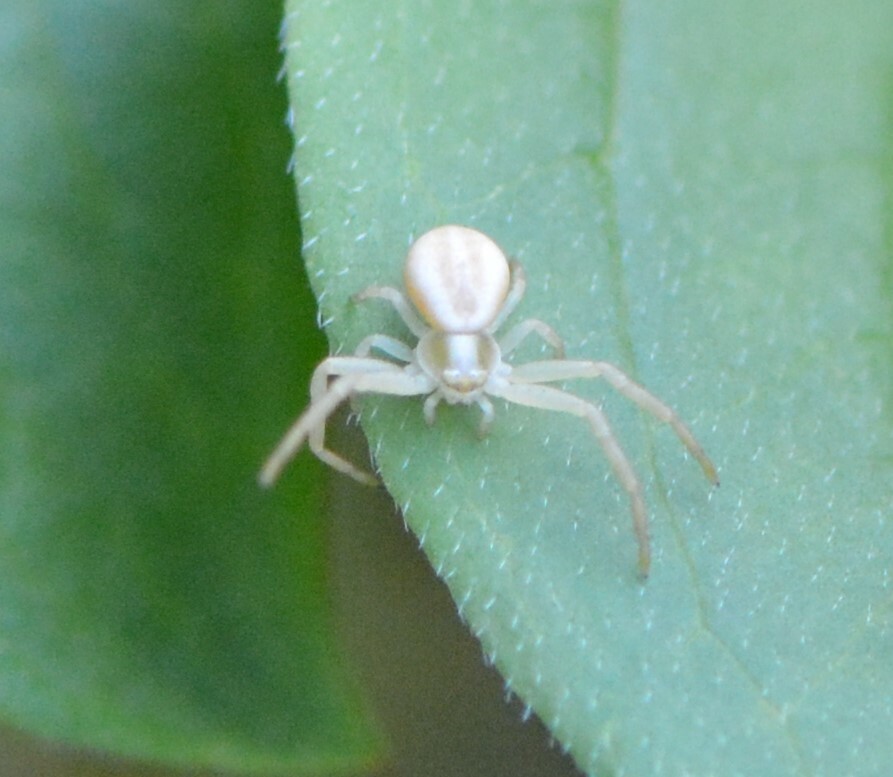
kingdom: Animalia
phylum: Arthropoda
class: Arachnida
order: Araneae
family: Thomisidae
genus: Misumena
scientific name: Misumena vatia
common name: Goldenrod crab spider
